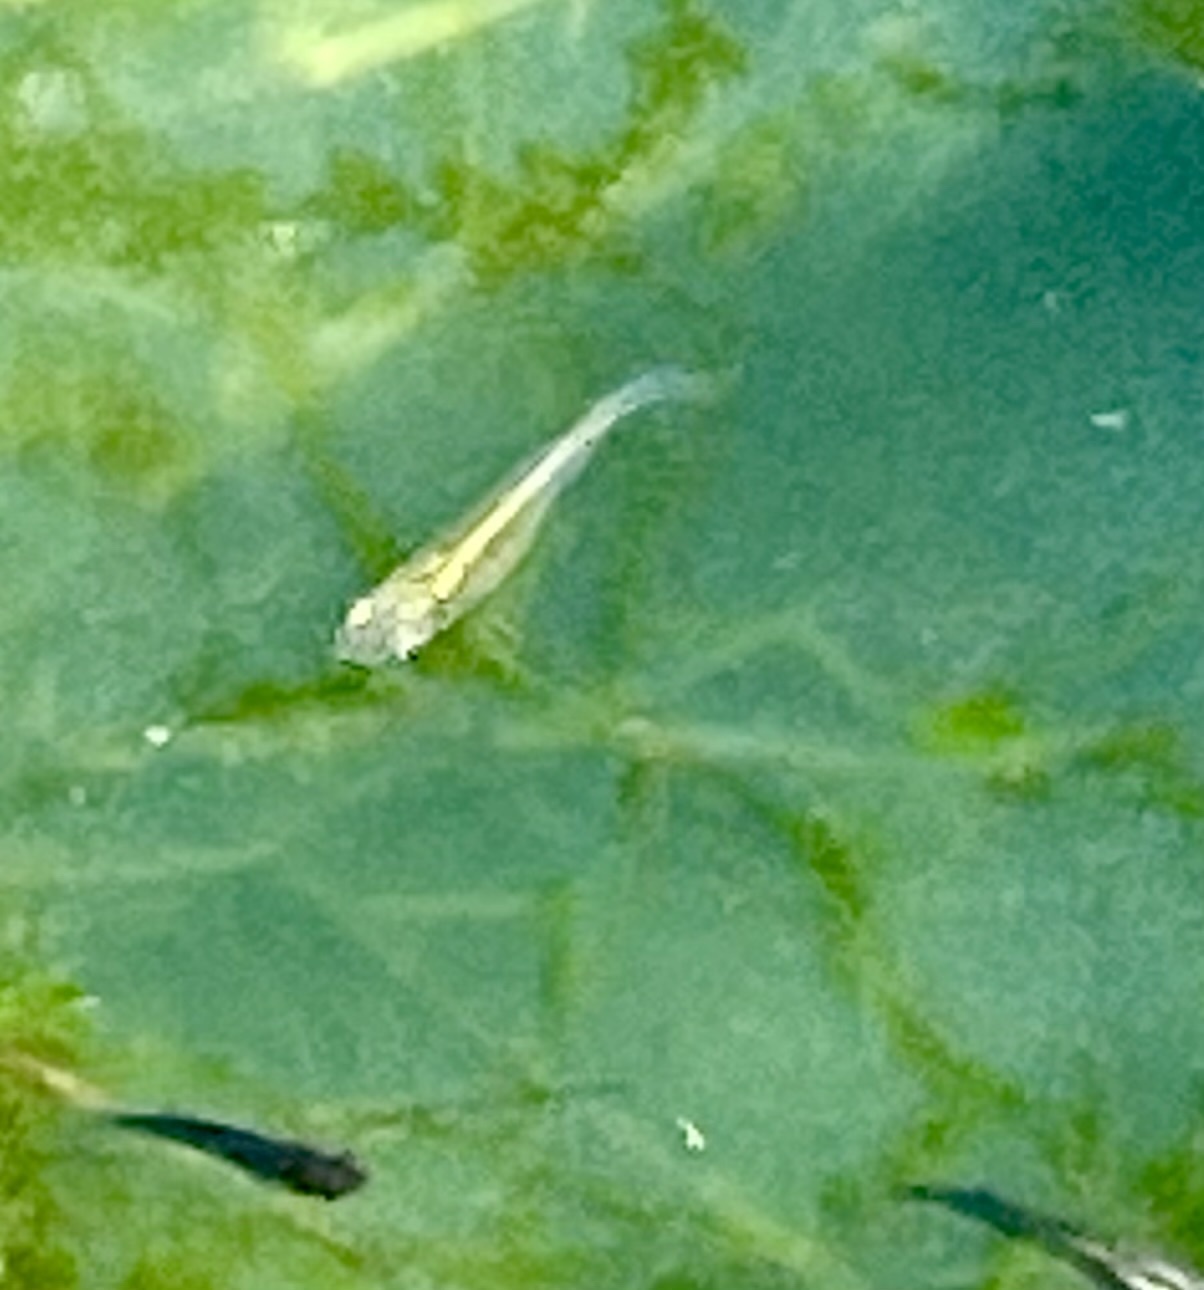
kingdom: Animalia
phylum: Chordata
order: Cyprinodontiformes
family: Poeciliidae
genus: Gambusia
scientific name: Gambusia affinis
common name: Mosquitofish
